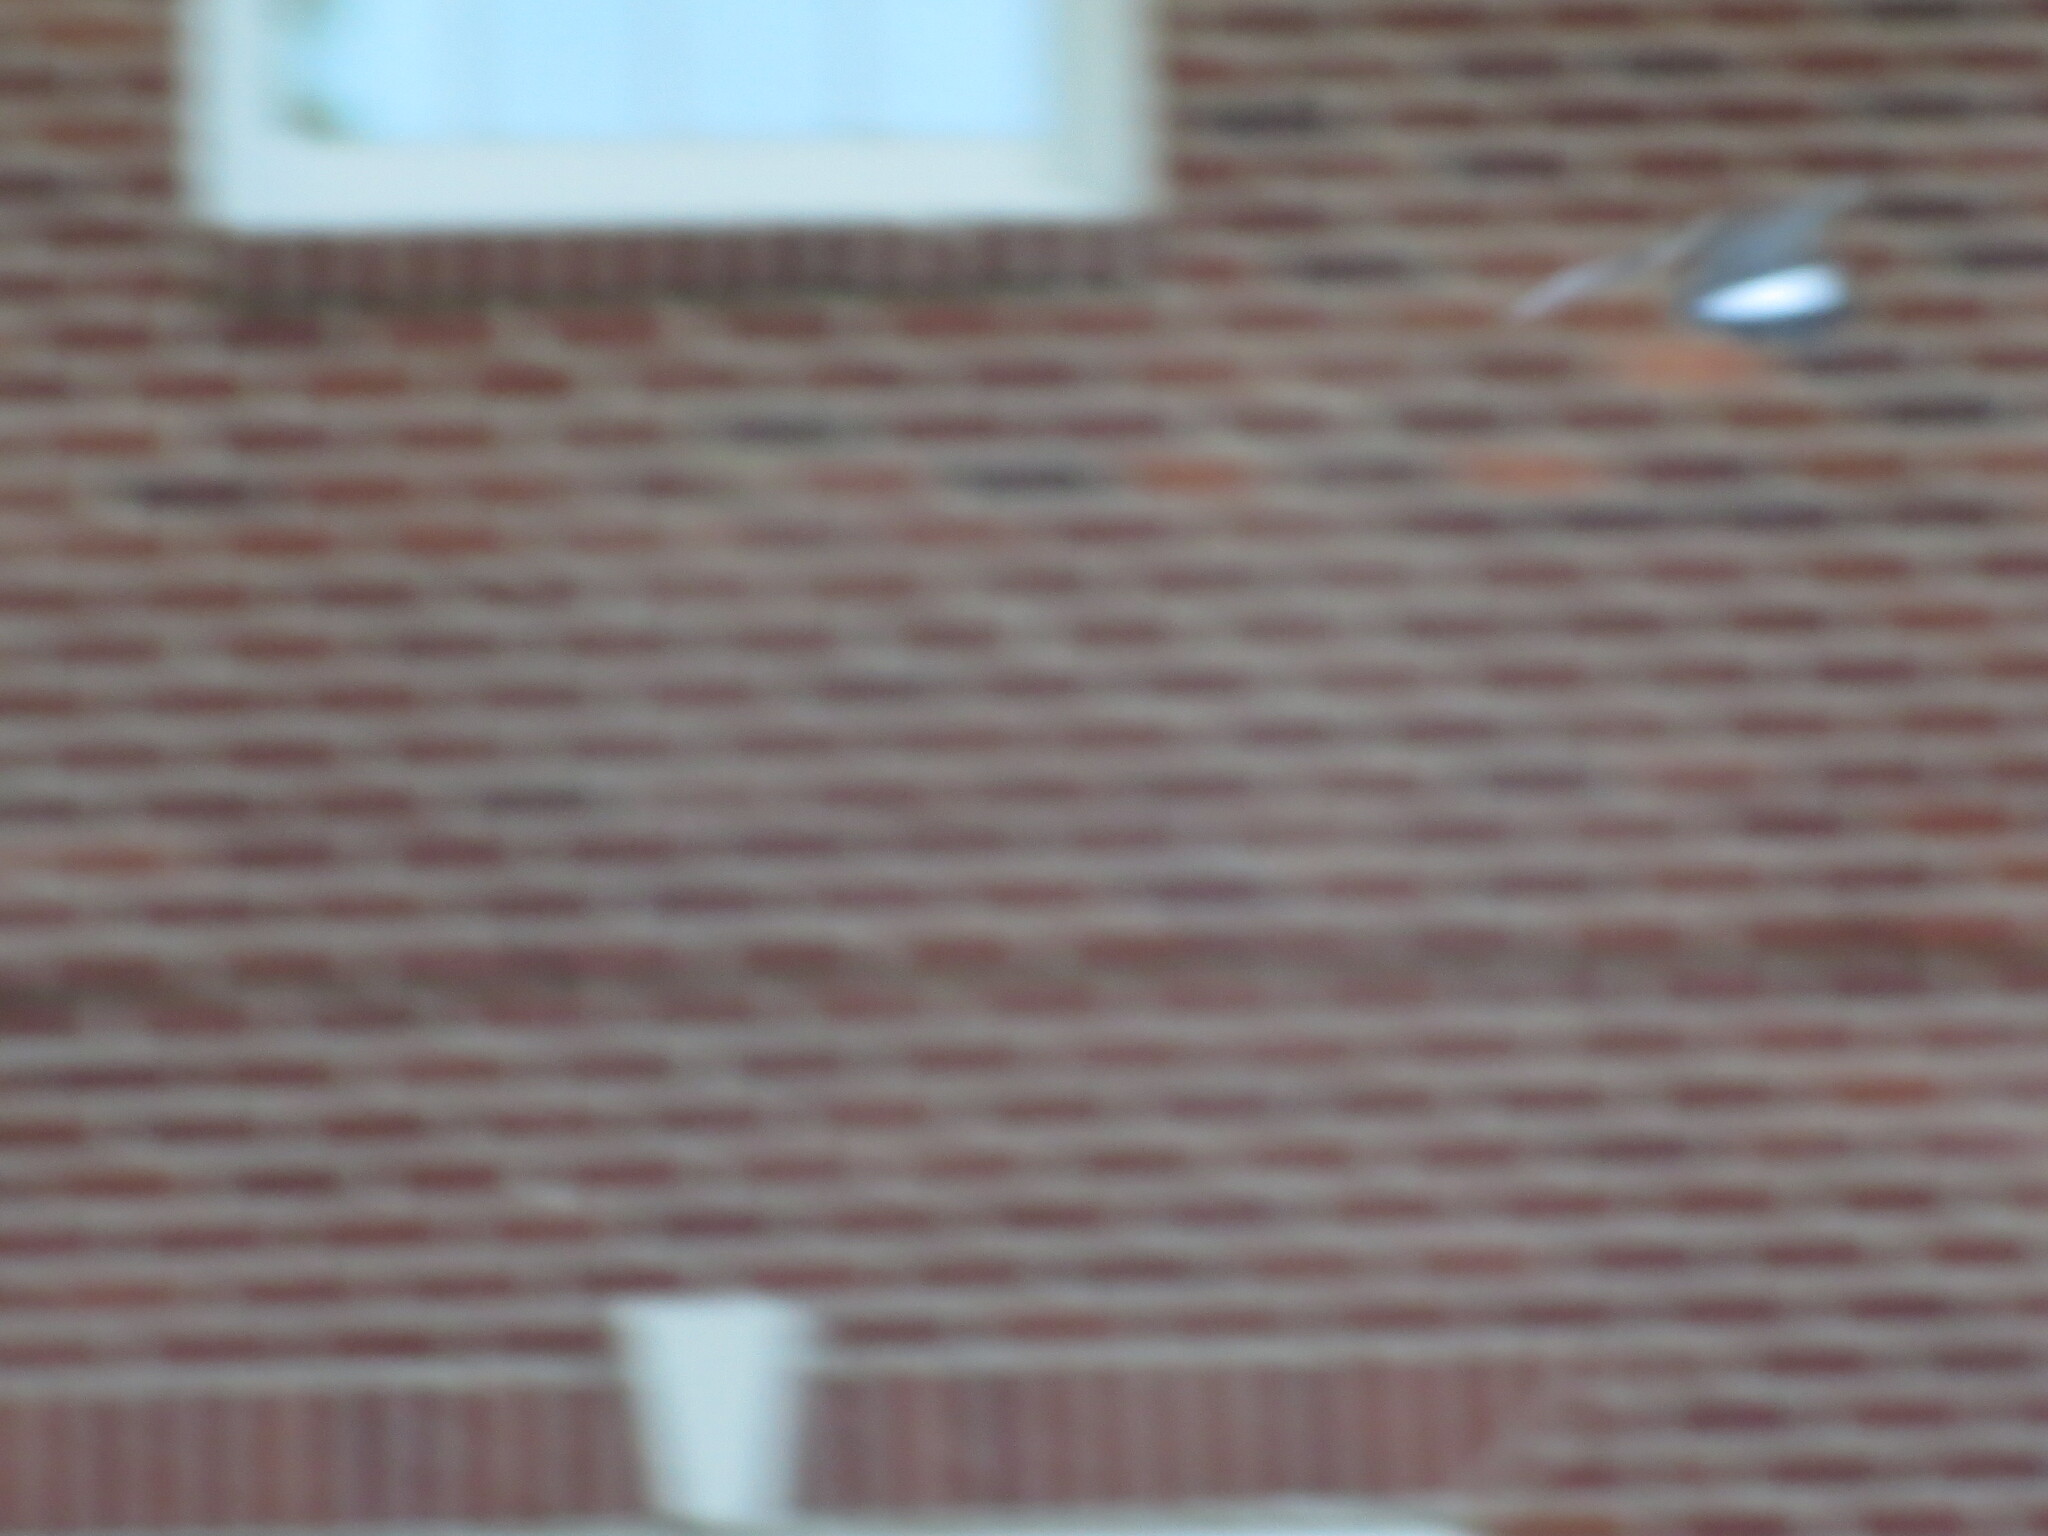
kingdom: Animalia
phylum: Chordata
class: Aves
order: Passeriformes
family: Mimidae
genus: Mimus
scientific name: Mimus polyglottos
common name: Northern mockingbird
